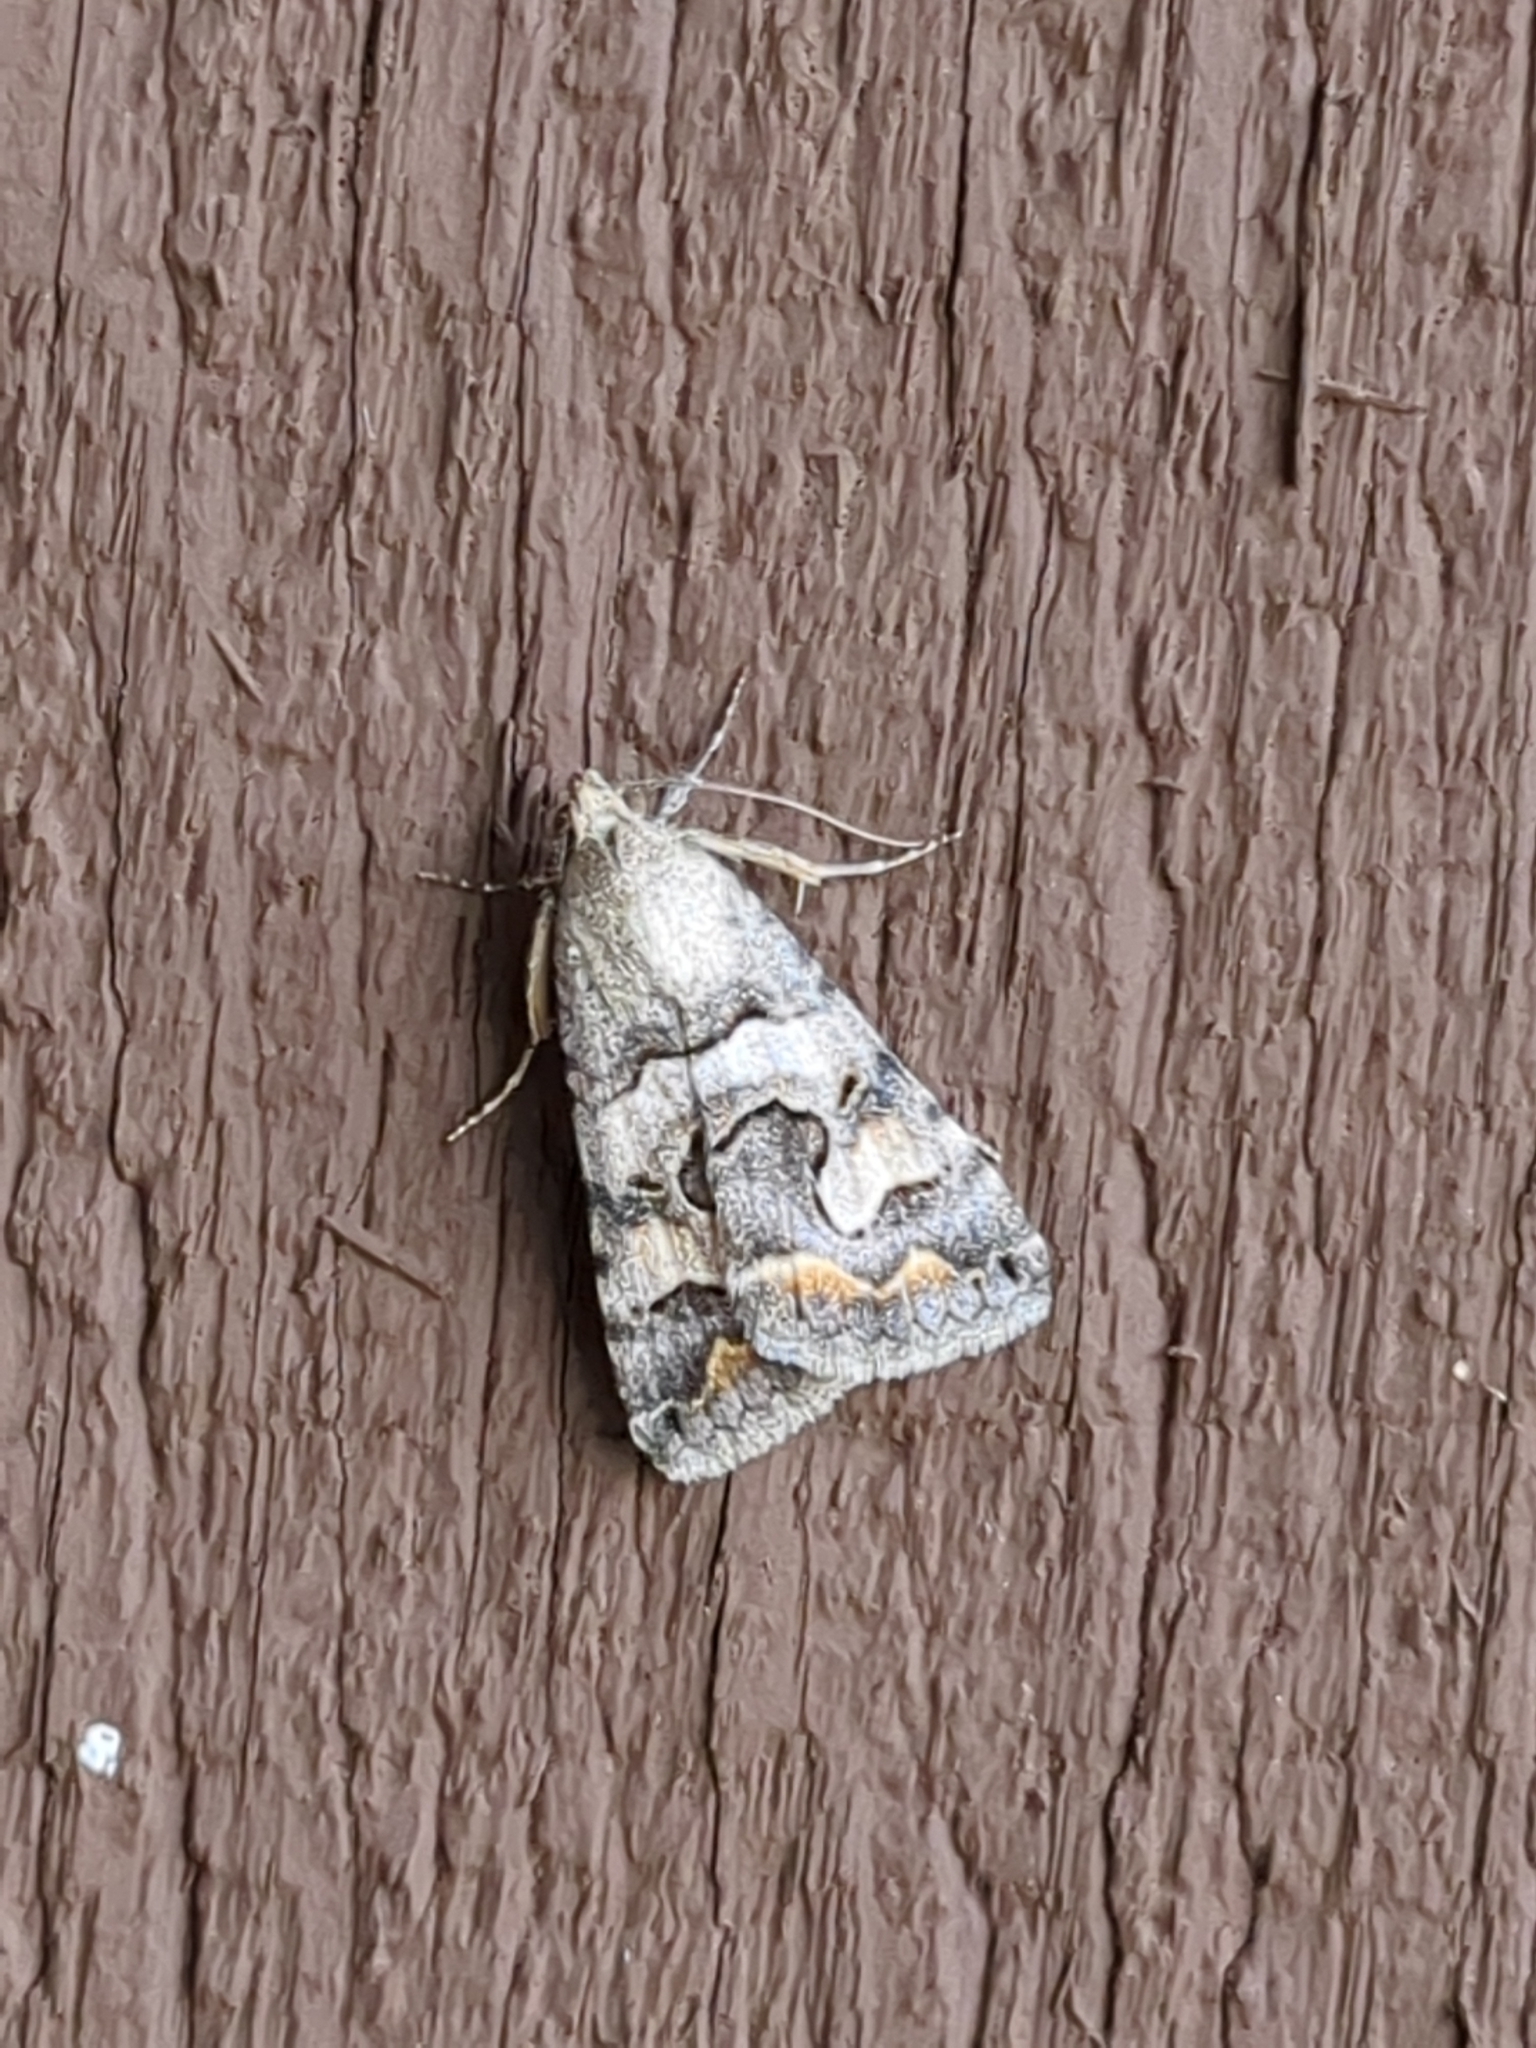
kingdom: Animalia
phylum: Arthropoda
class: Insecta
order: Lepidoptera
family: Erebidae
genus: Bulia
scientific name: Bulia deducta
